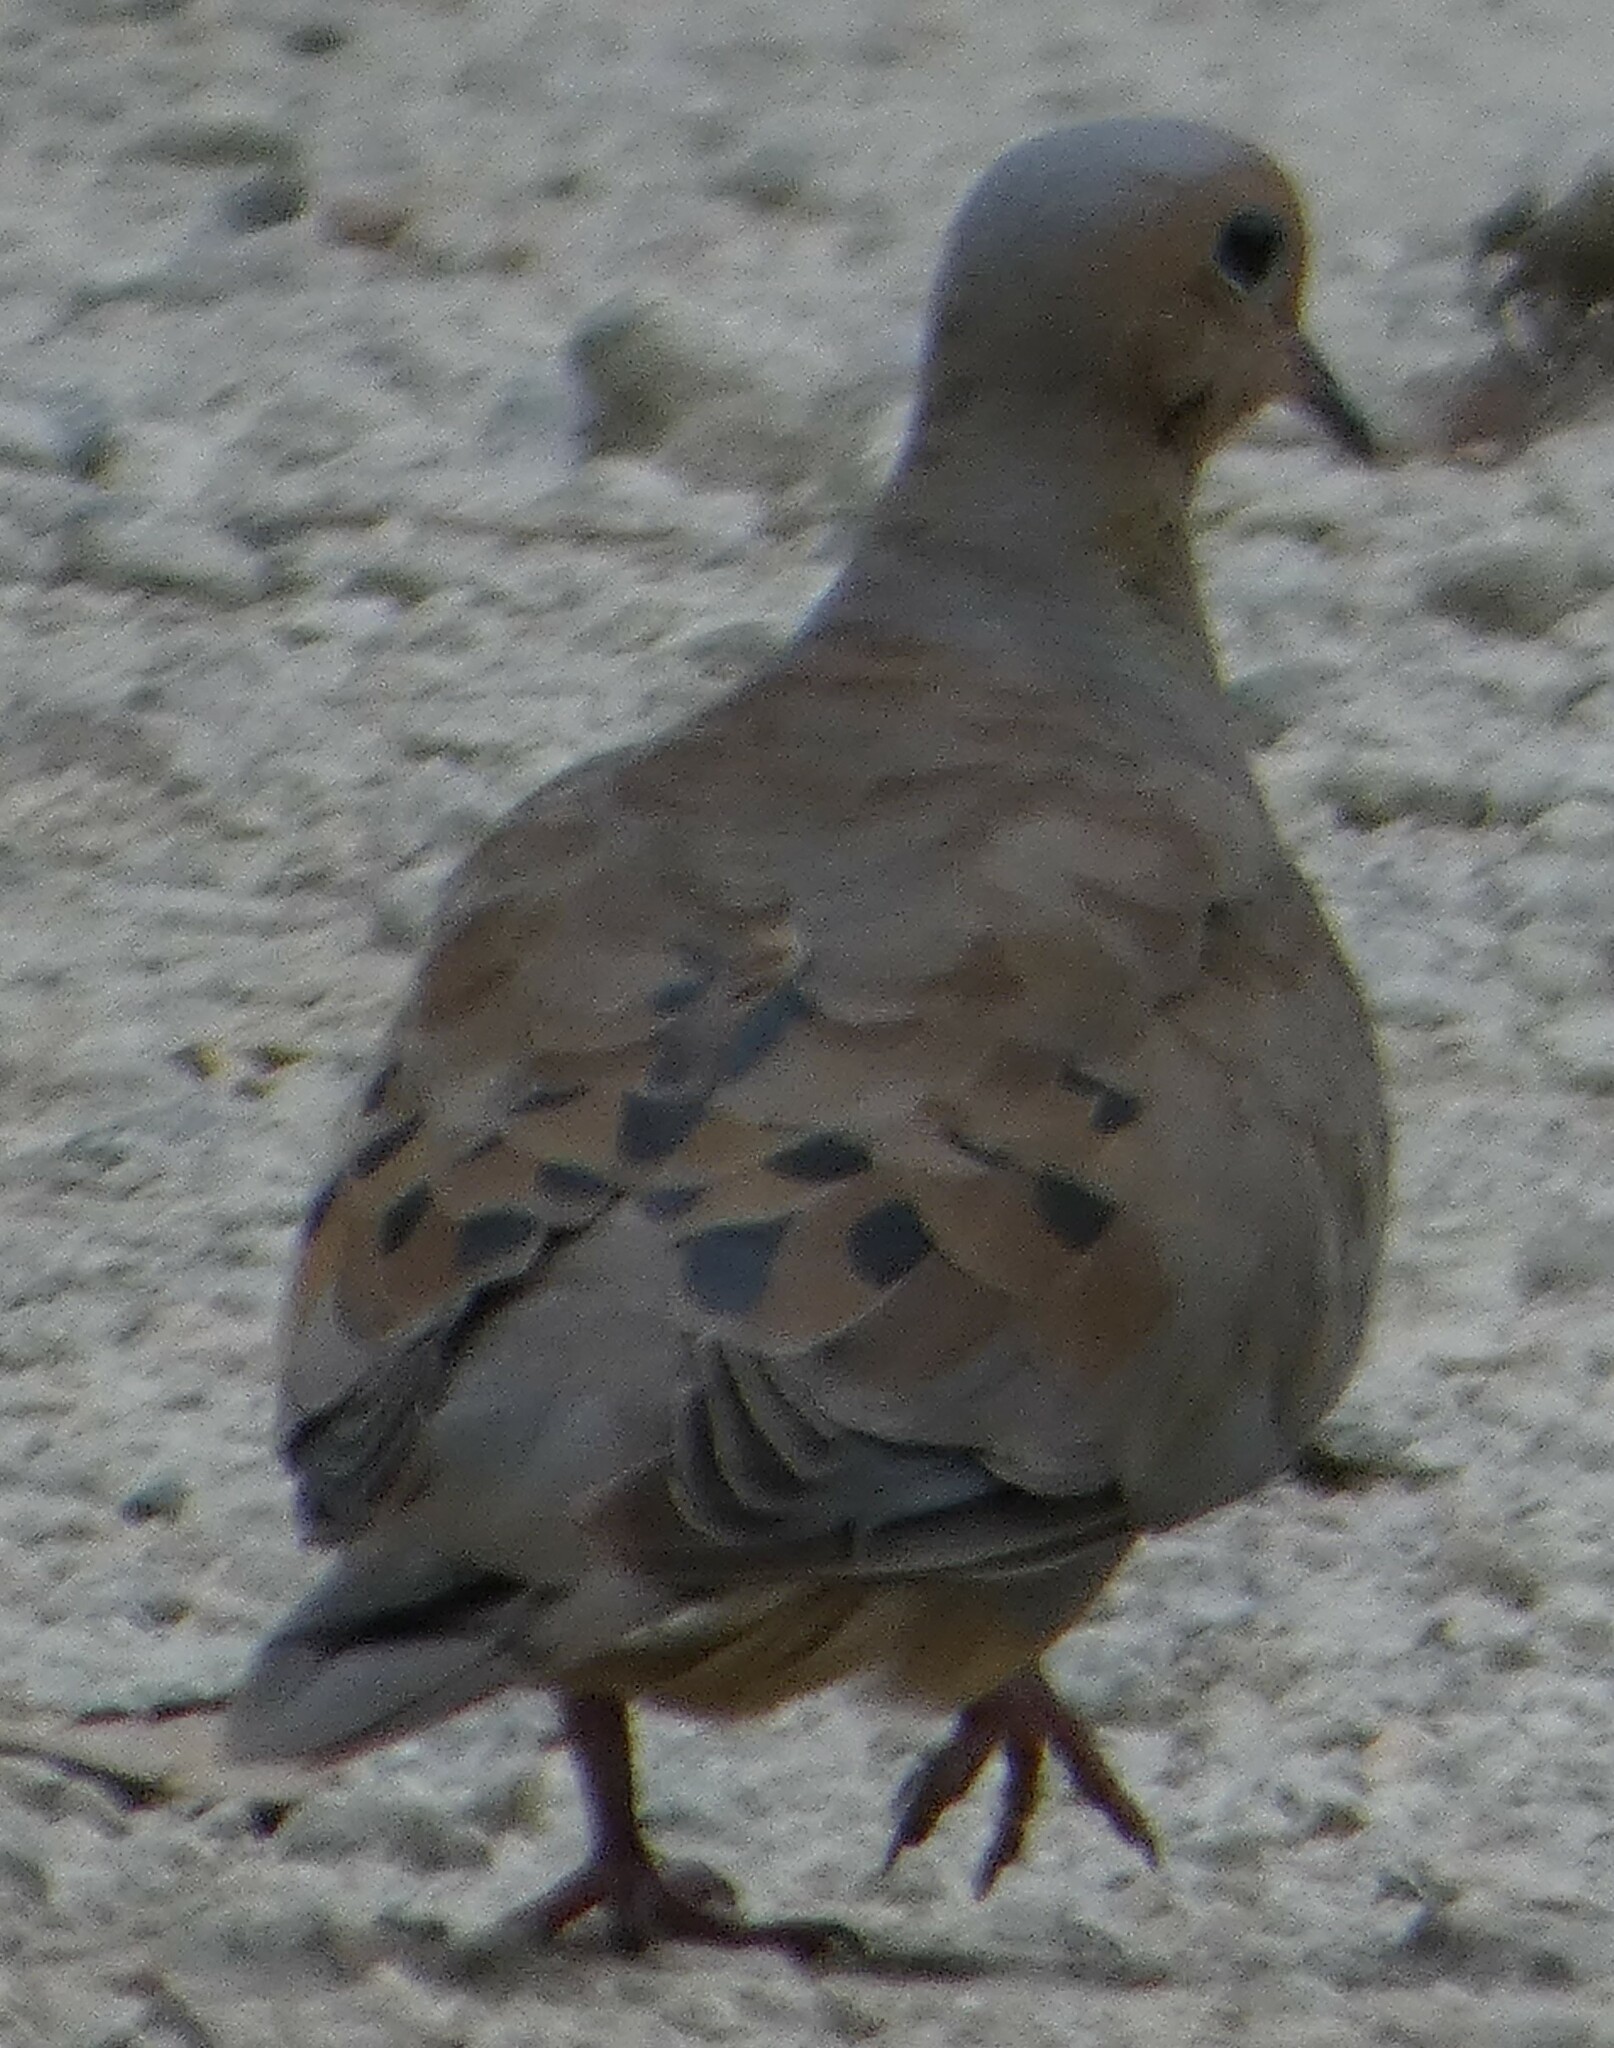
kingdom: Animalia
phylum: Chordata
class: Aves
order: Columbiformes
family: Columbidae
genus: Zenaida
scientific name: Zenaida macroura
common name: Mourning dove
